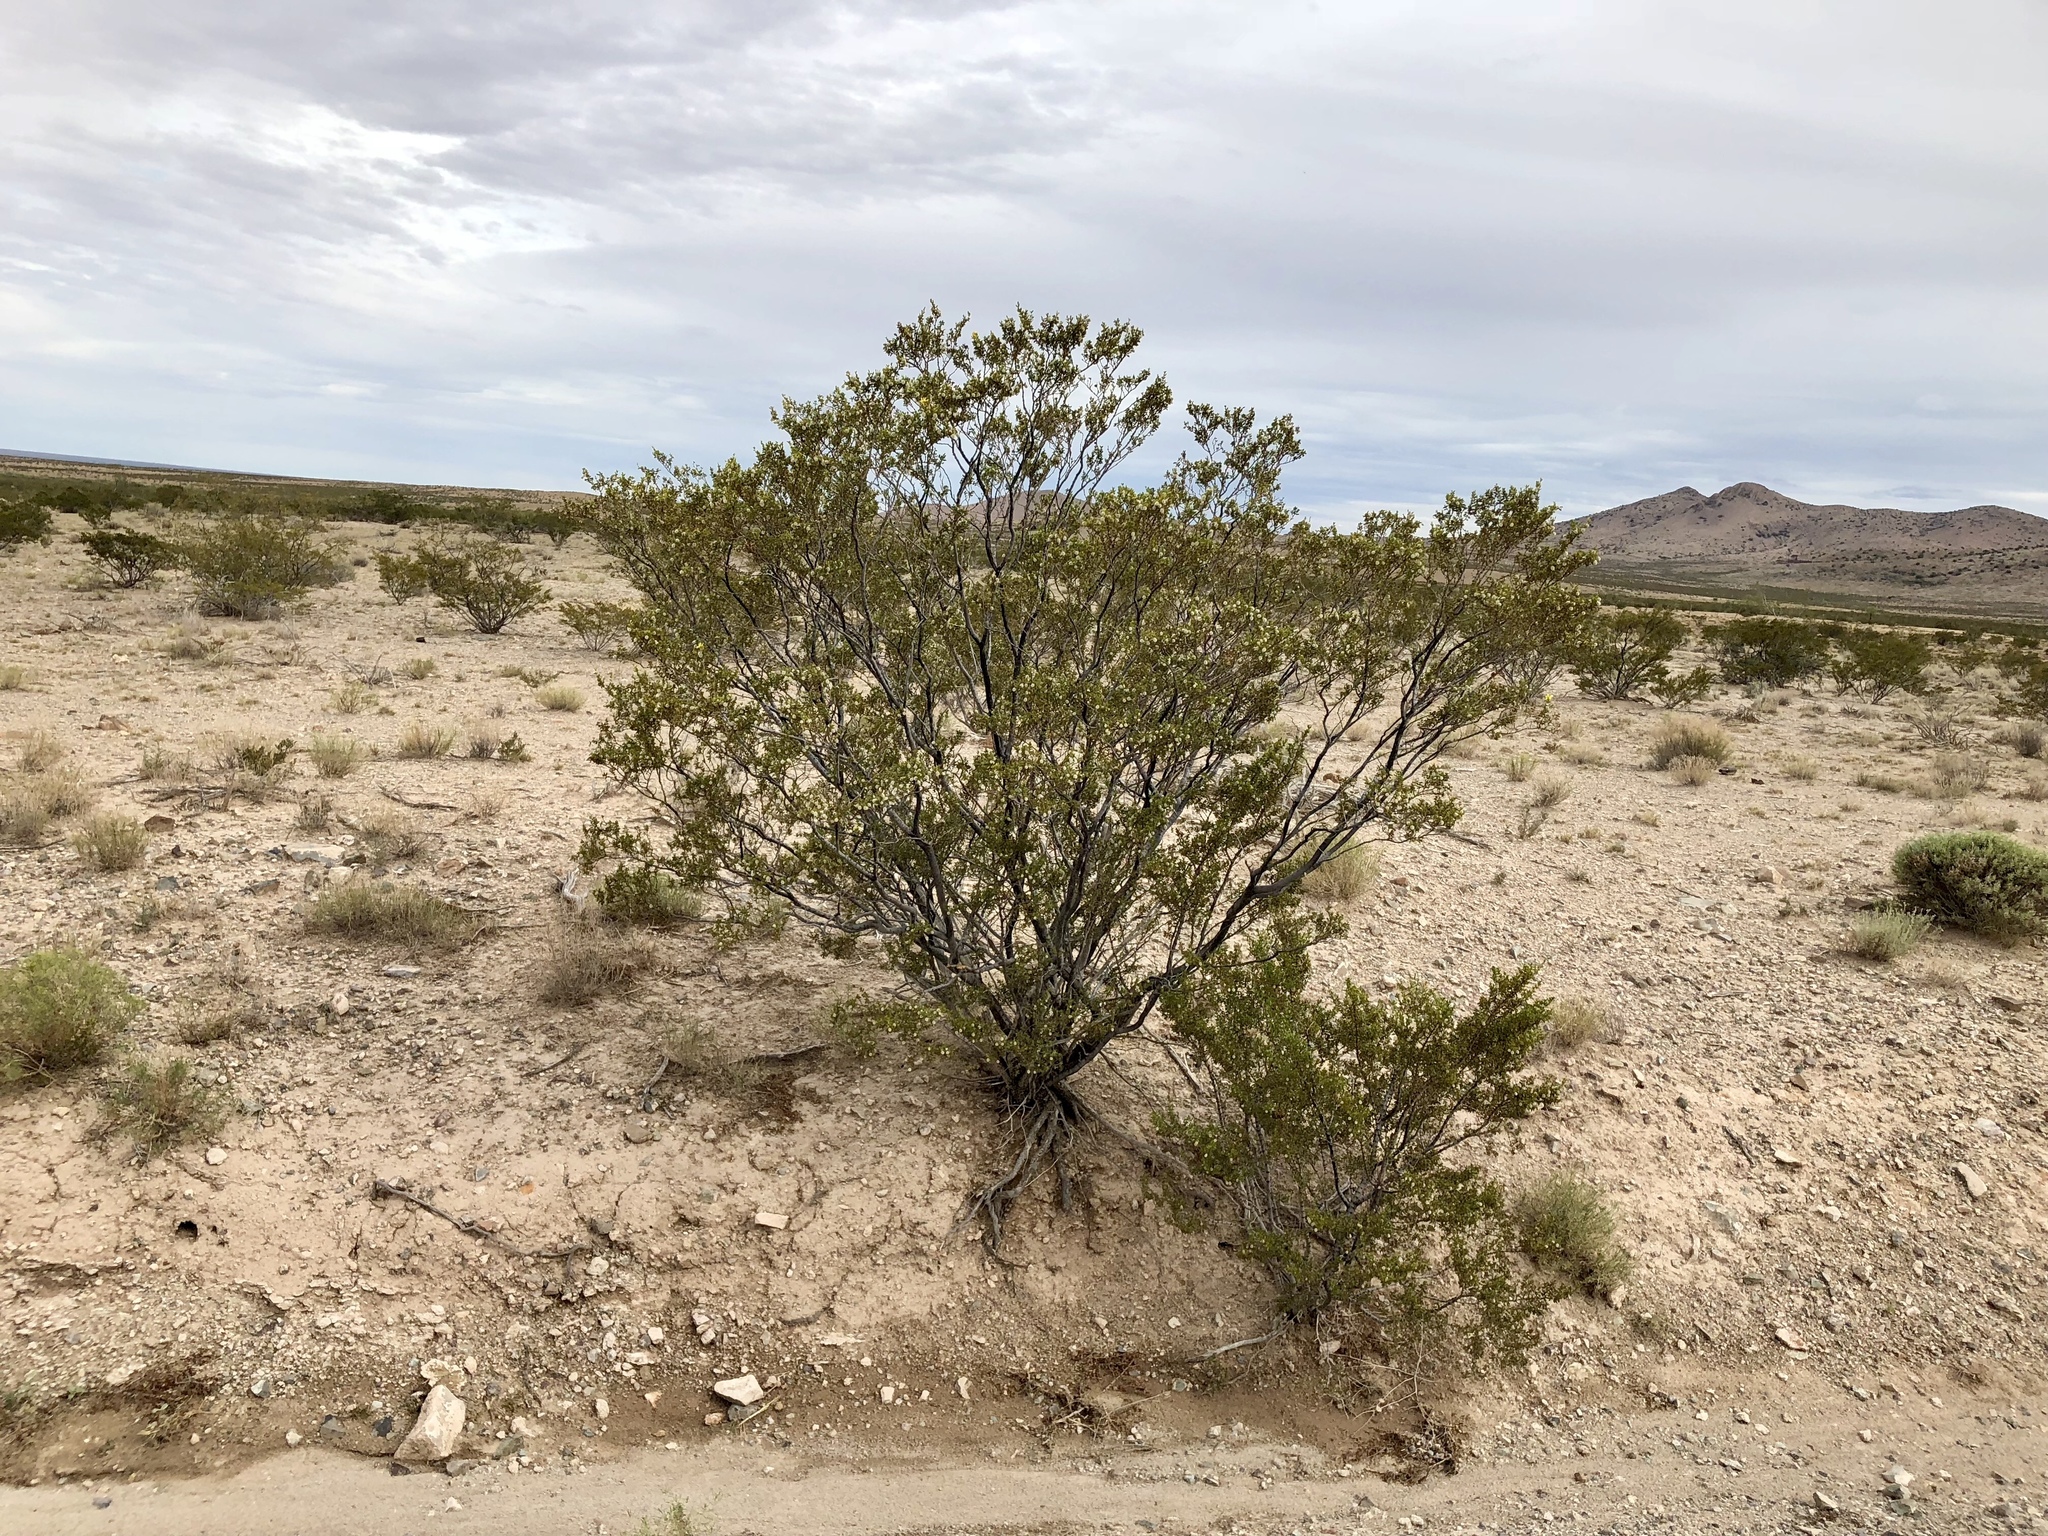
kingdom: Plantae
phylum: Tracheophyta
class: Magnoliopsida
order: Zygophyllales
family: Zygophyllaceae
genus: Larrea
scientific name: Larrea tridentata
